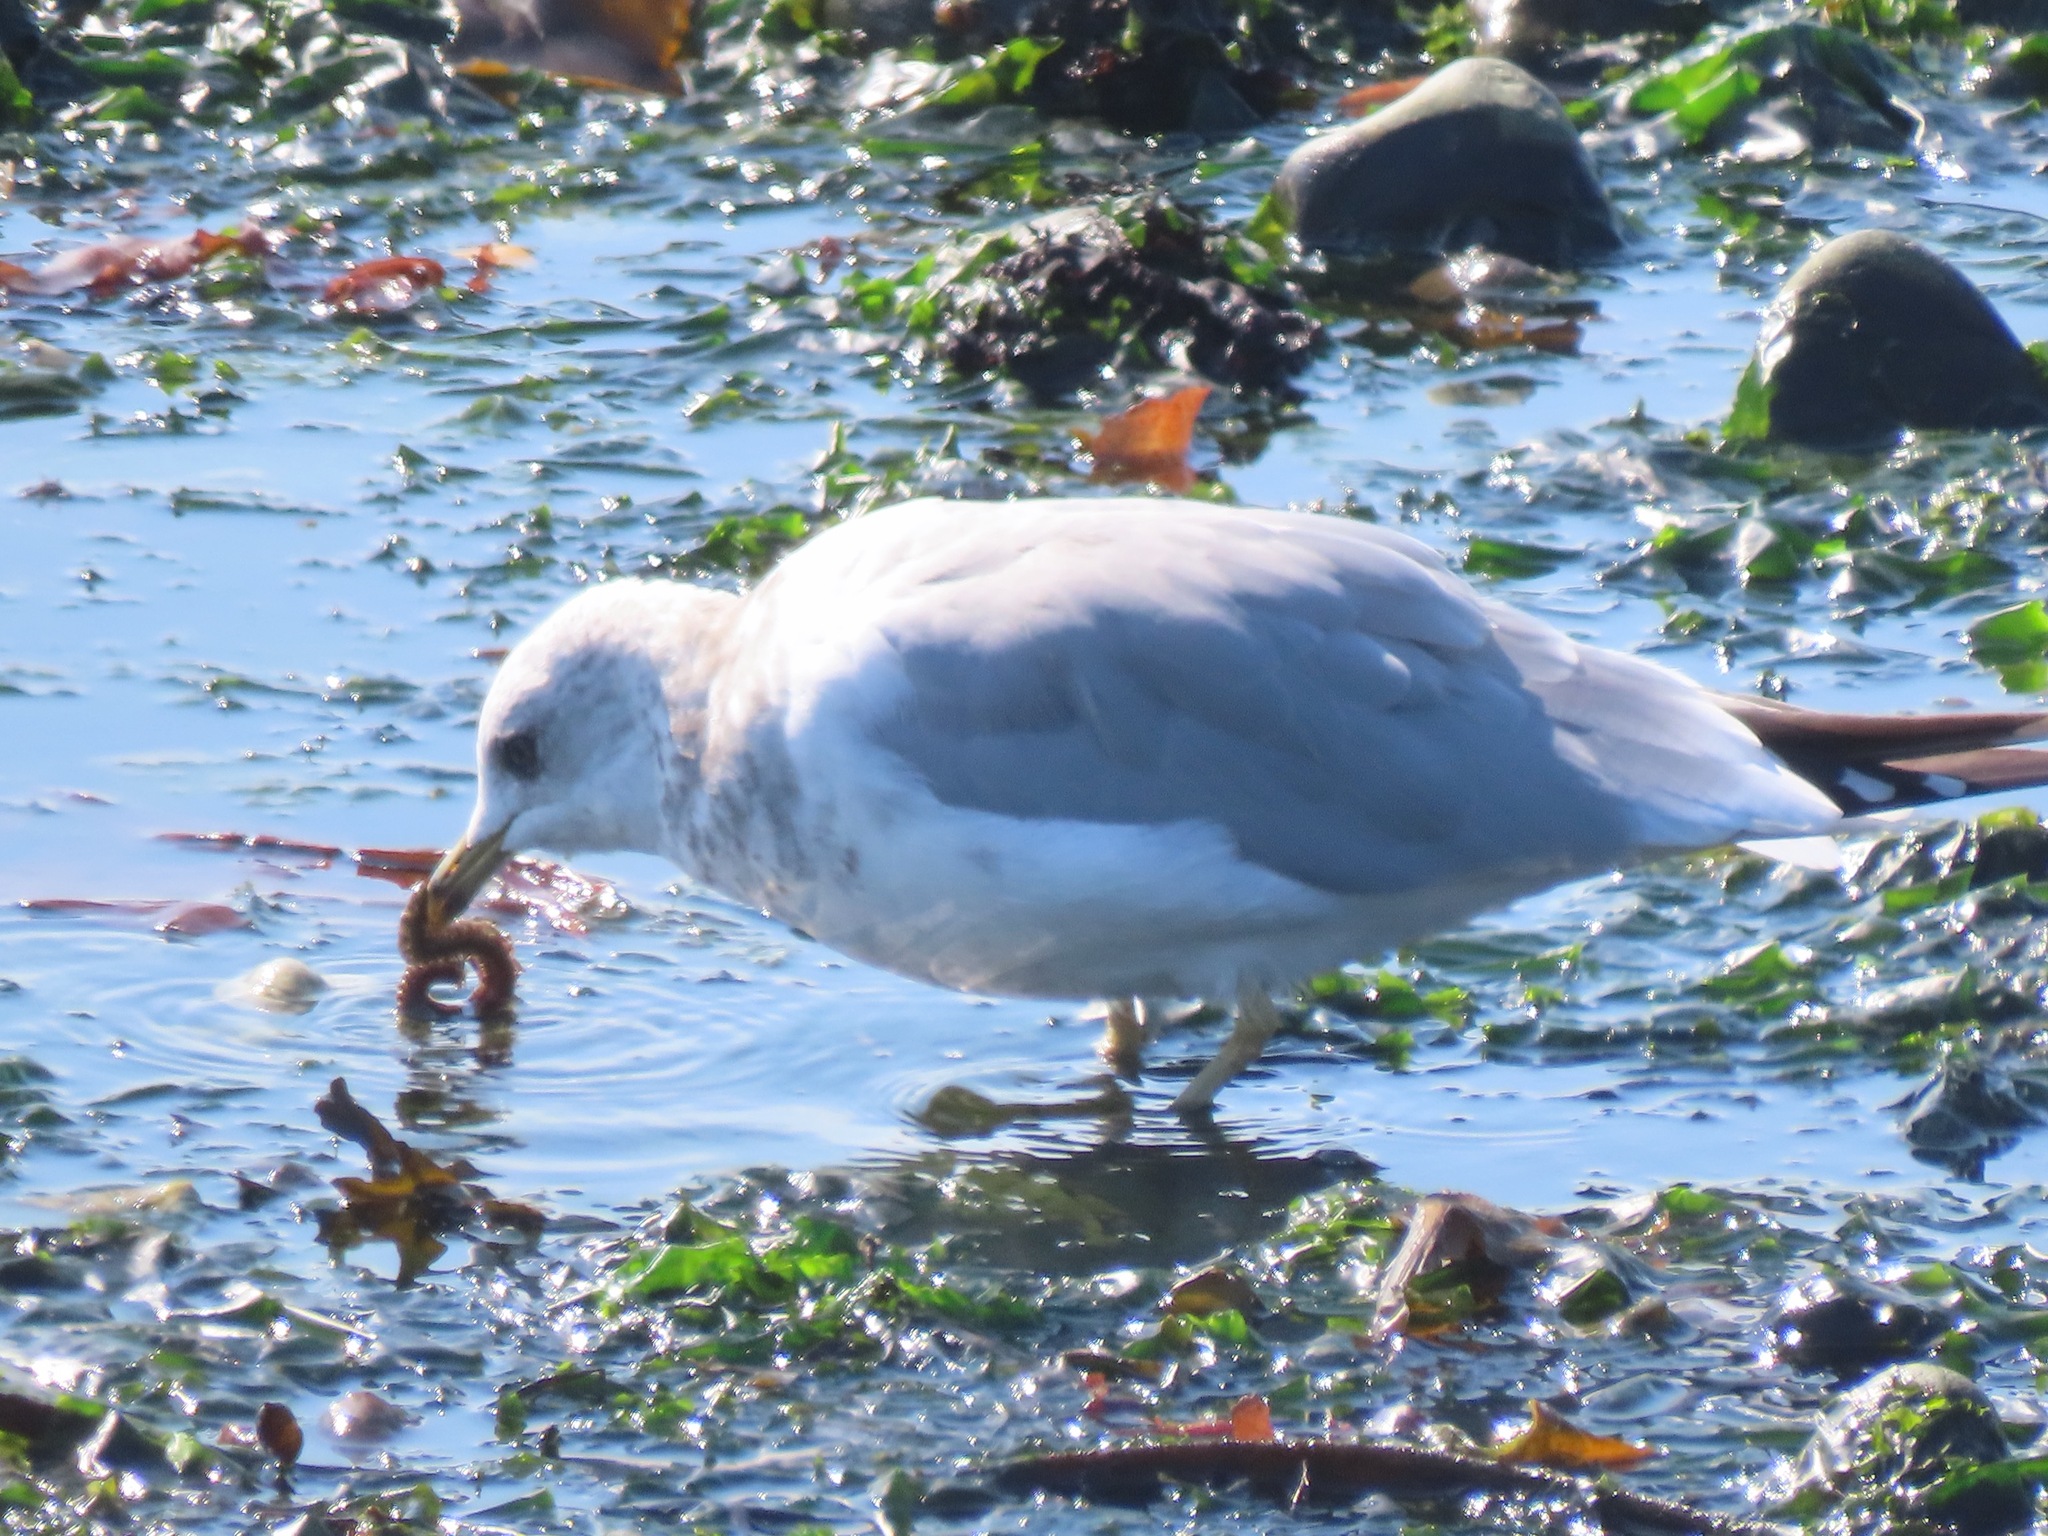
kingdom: Animalia
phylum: Chordata
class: Aves
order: Charadriiformes
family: Laridae
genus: Larus
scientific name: Larus brachyrhynchus
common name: Short-billed gull
